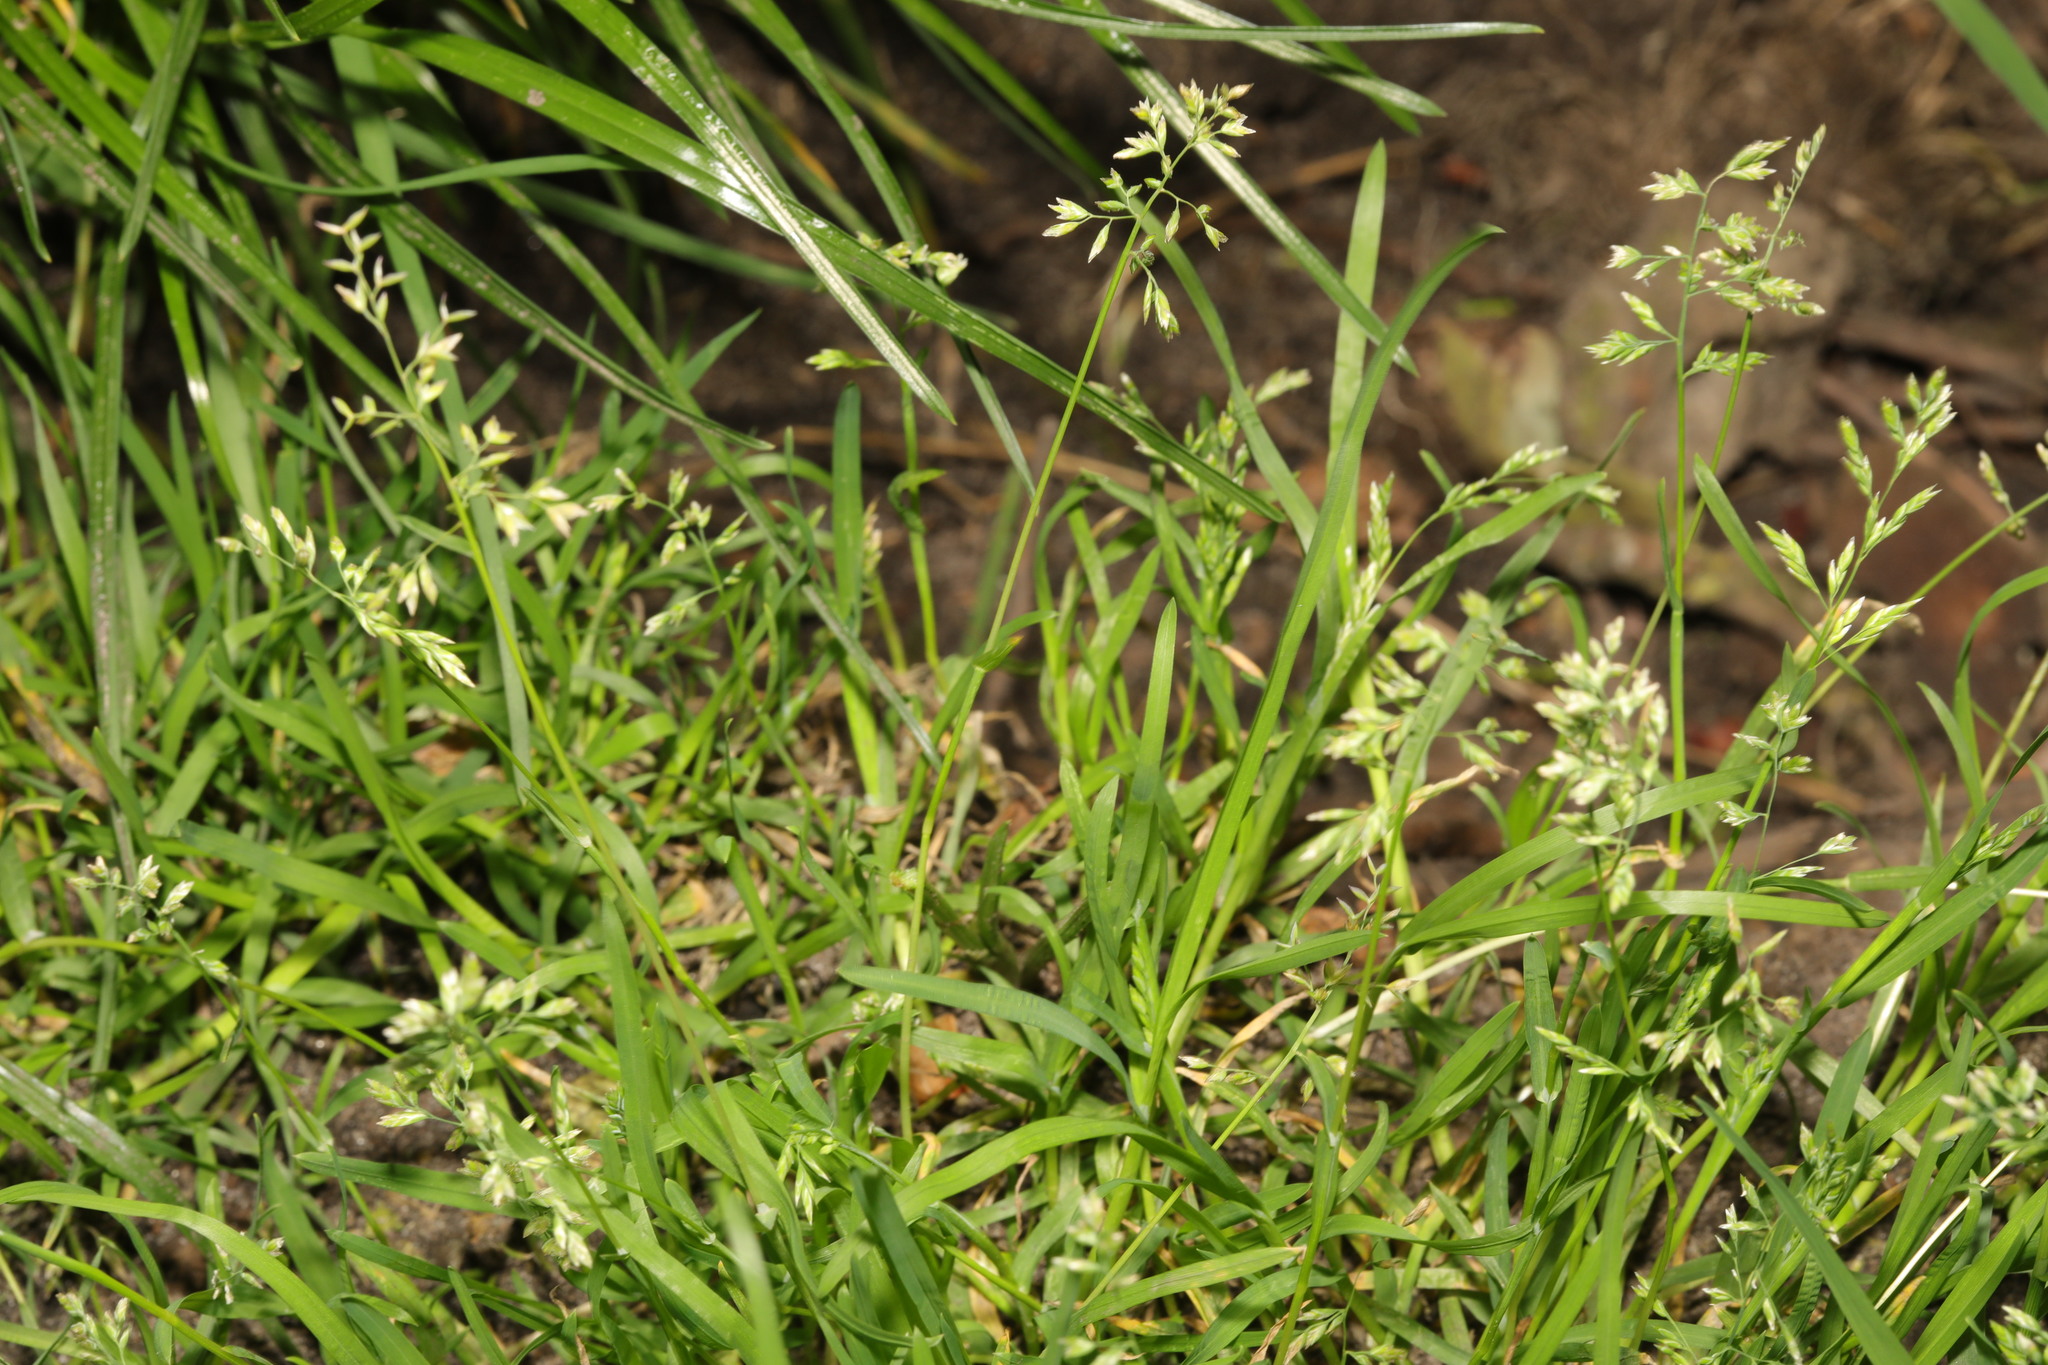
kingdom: Plantae
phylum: Tracheophyta
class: Liliopsida
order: Poales
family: Poaceae
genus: Poa
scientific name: Poa annua
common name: Annual bluegrass
